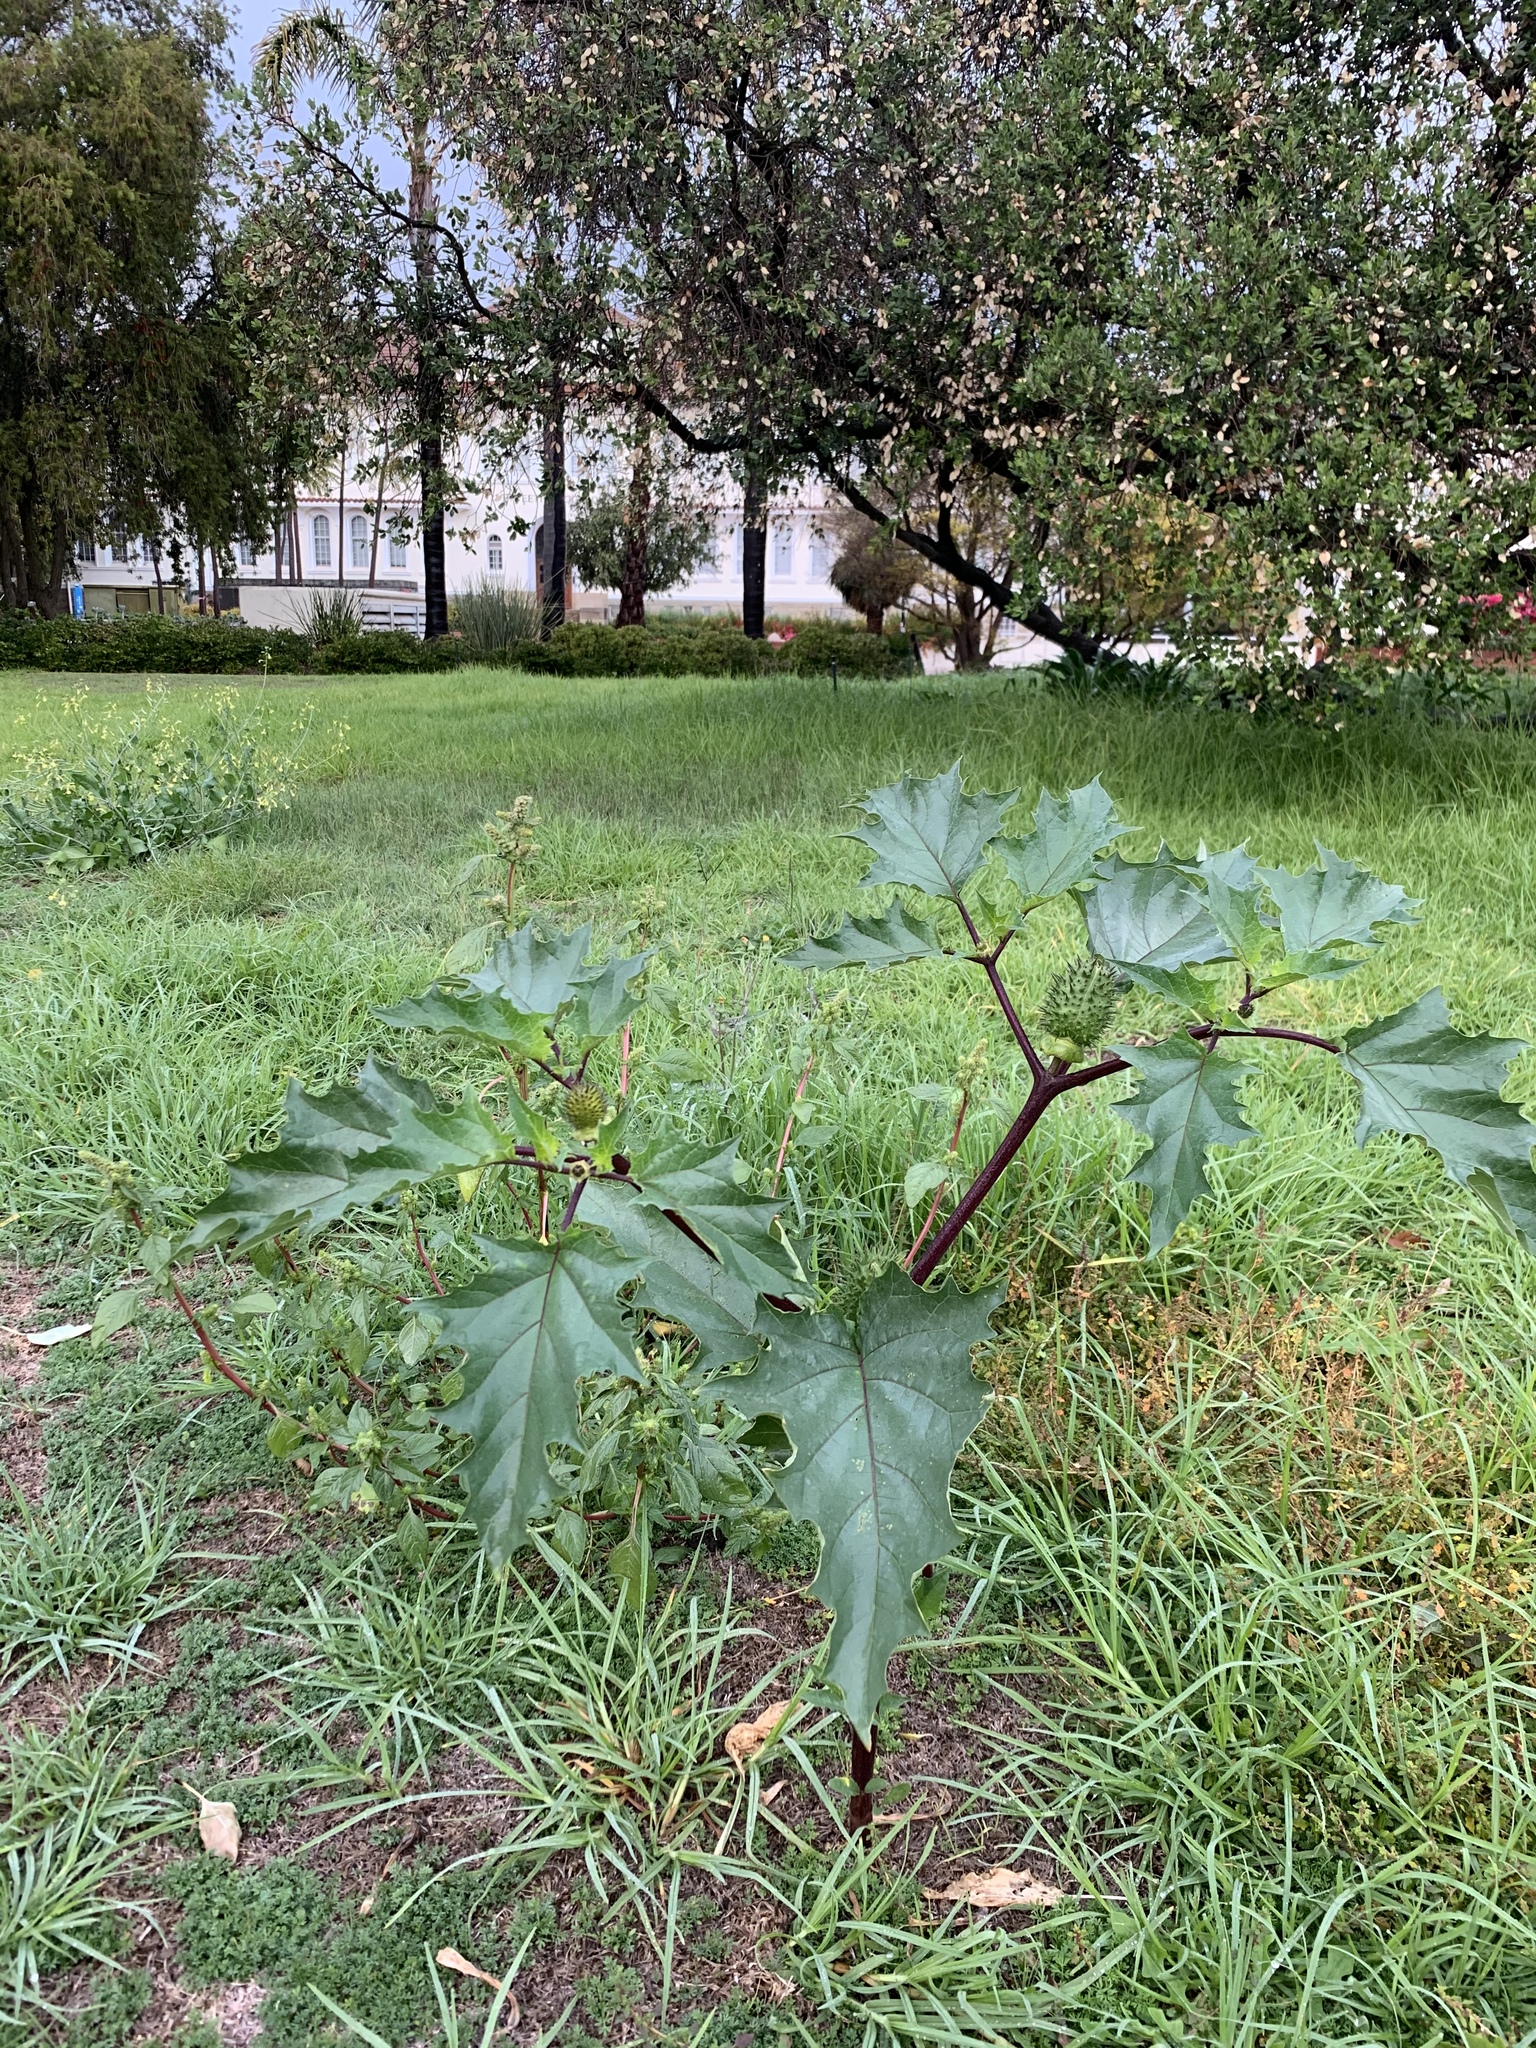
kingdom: Plantae
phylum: Tracheophyta
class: Magnoliopsida
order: Solanales
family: Solanaceae
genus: Datura
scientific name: Datura stramonium
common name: Thorn-apple
